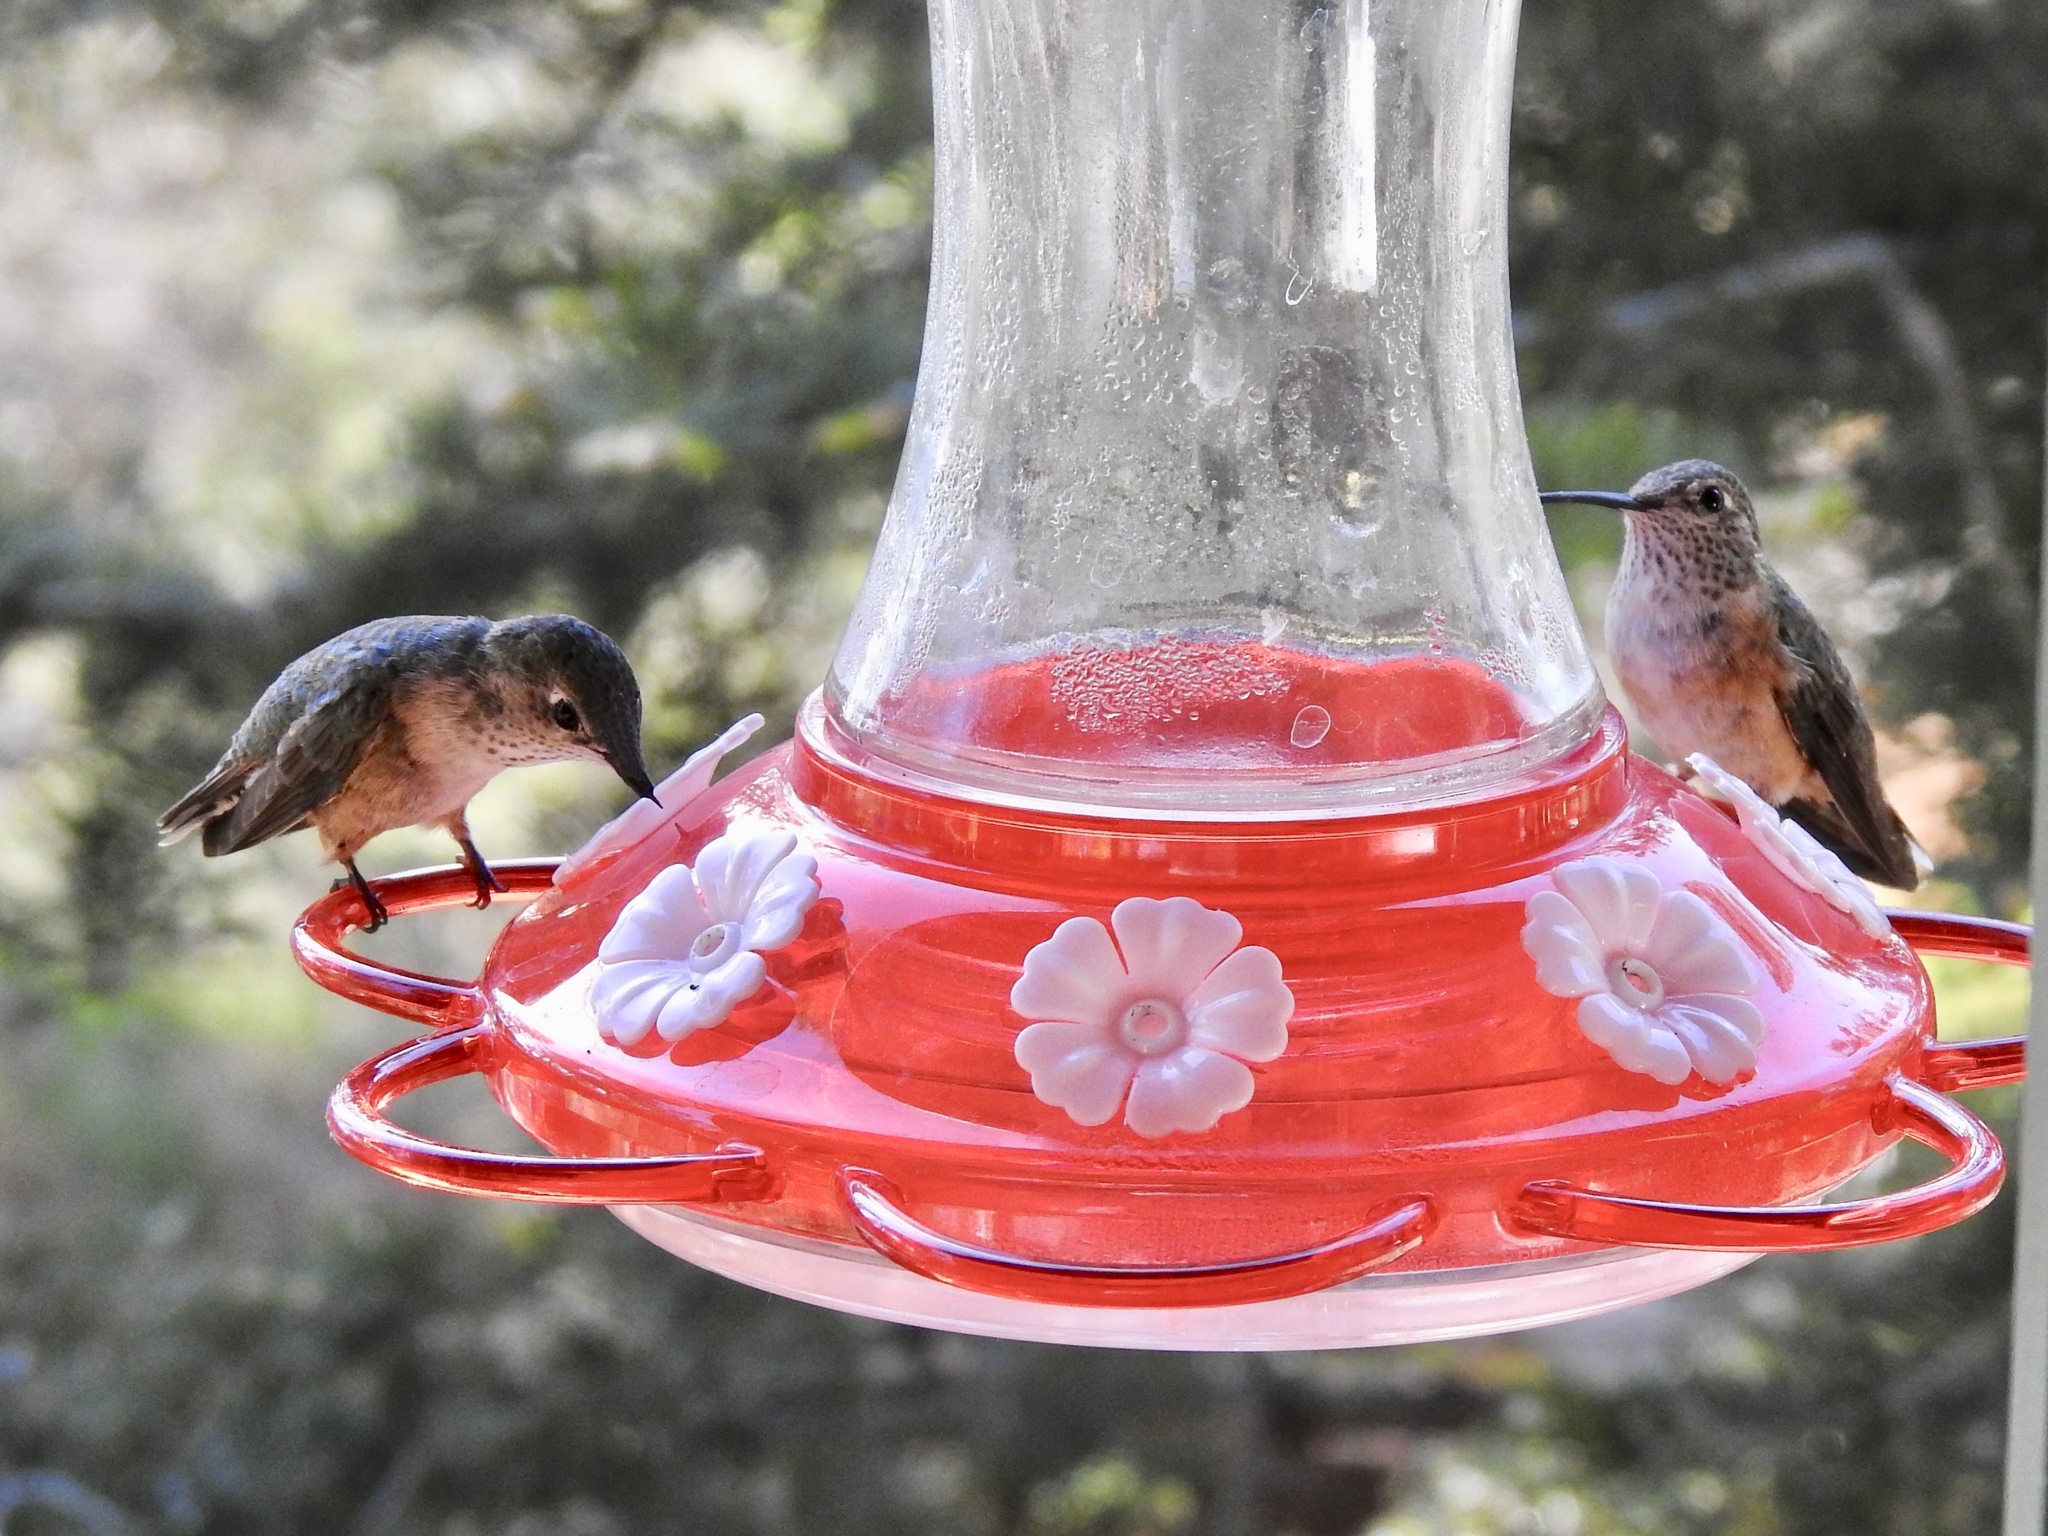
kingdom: Animalia
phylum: Chordata
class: Aves
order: Apodiformes
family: Trochilidae
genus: Archilochus
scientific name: Archilochus alexandri
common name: Black-chinned hummingbird
